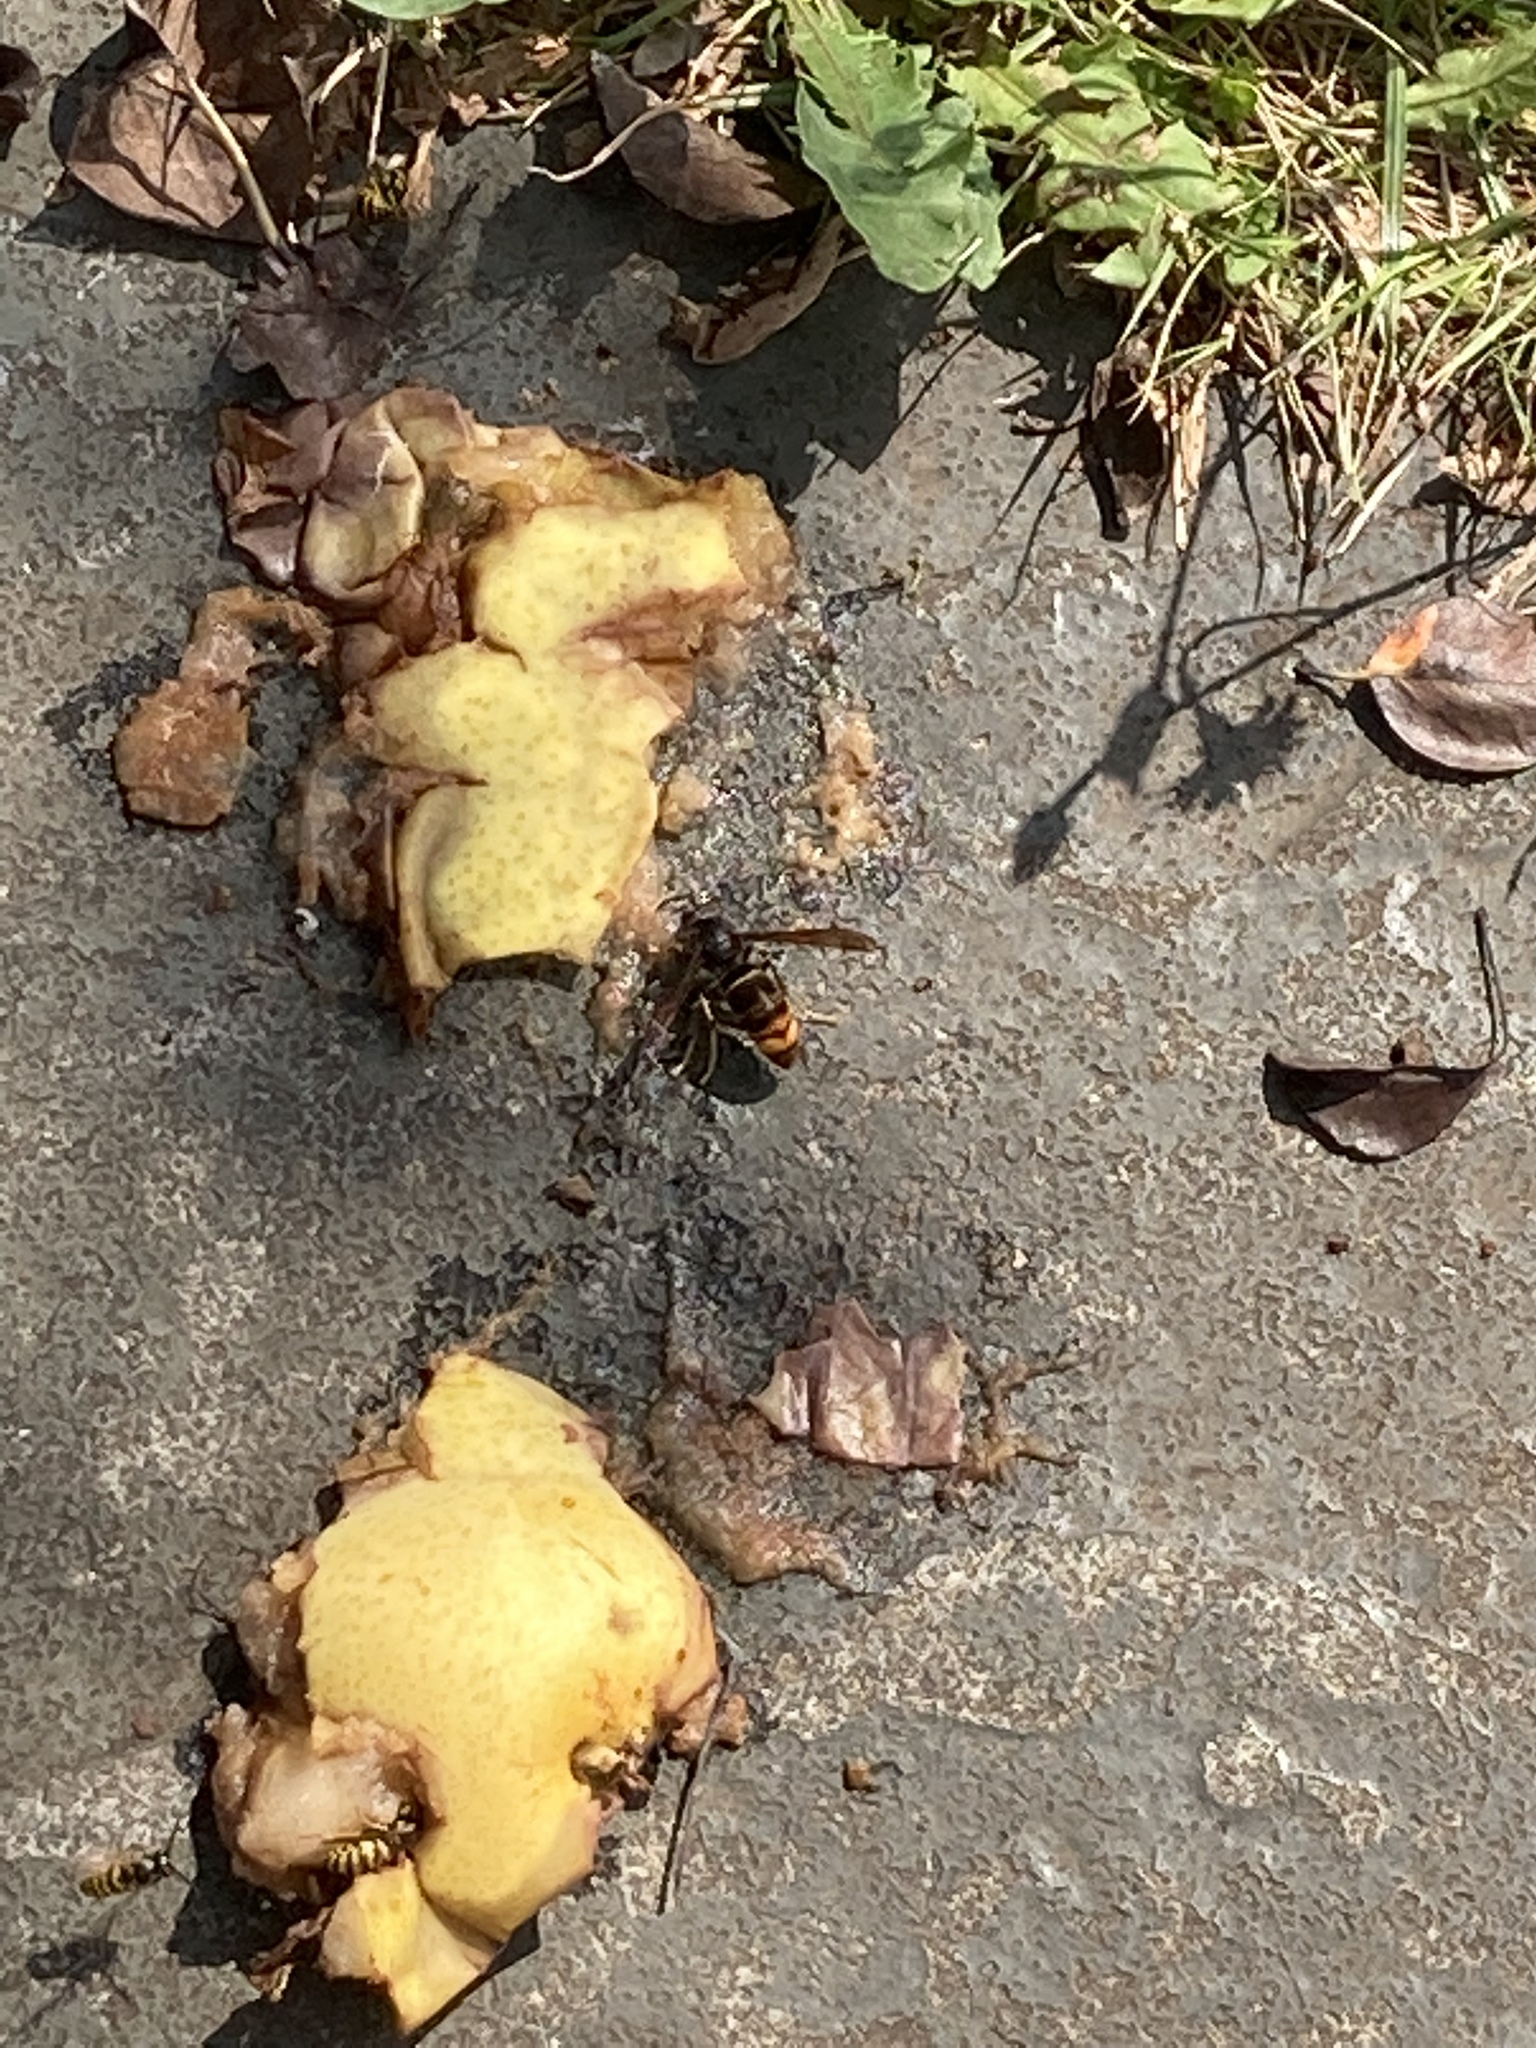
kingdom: Animalia
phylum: Arthropoda
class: Insecta
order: Hymenoptera
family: Vespidae
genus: Vespa
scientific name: Vespa velutina
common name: Asian hornet
